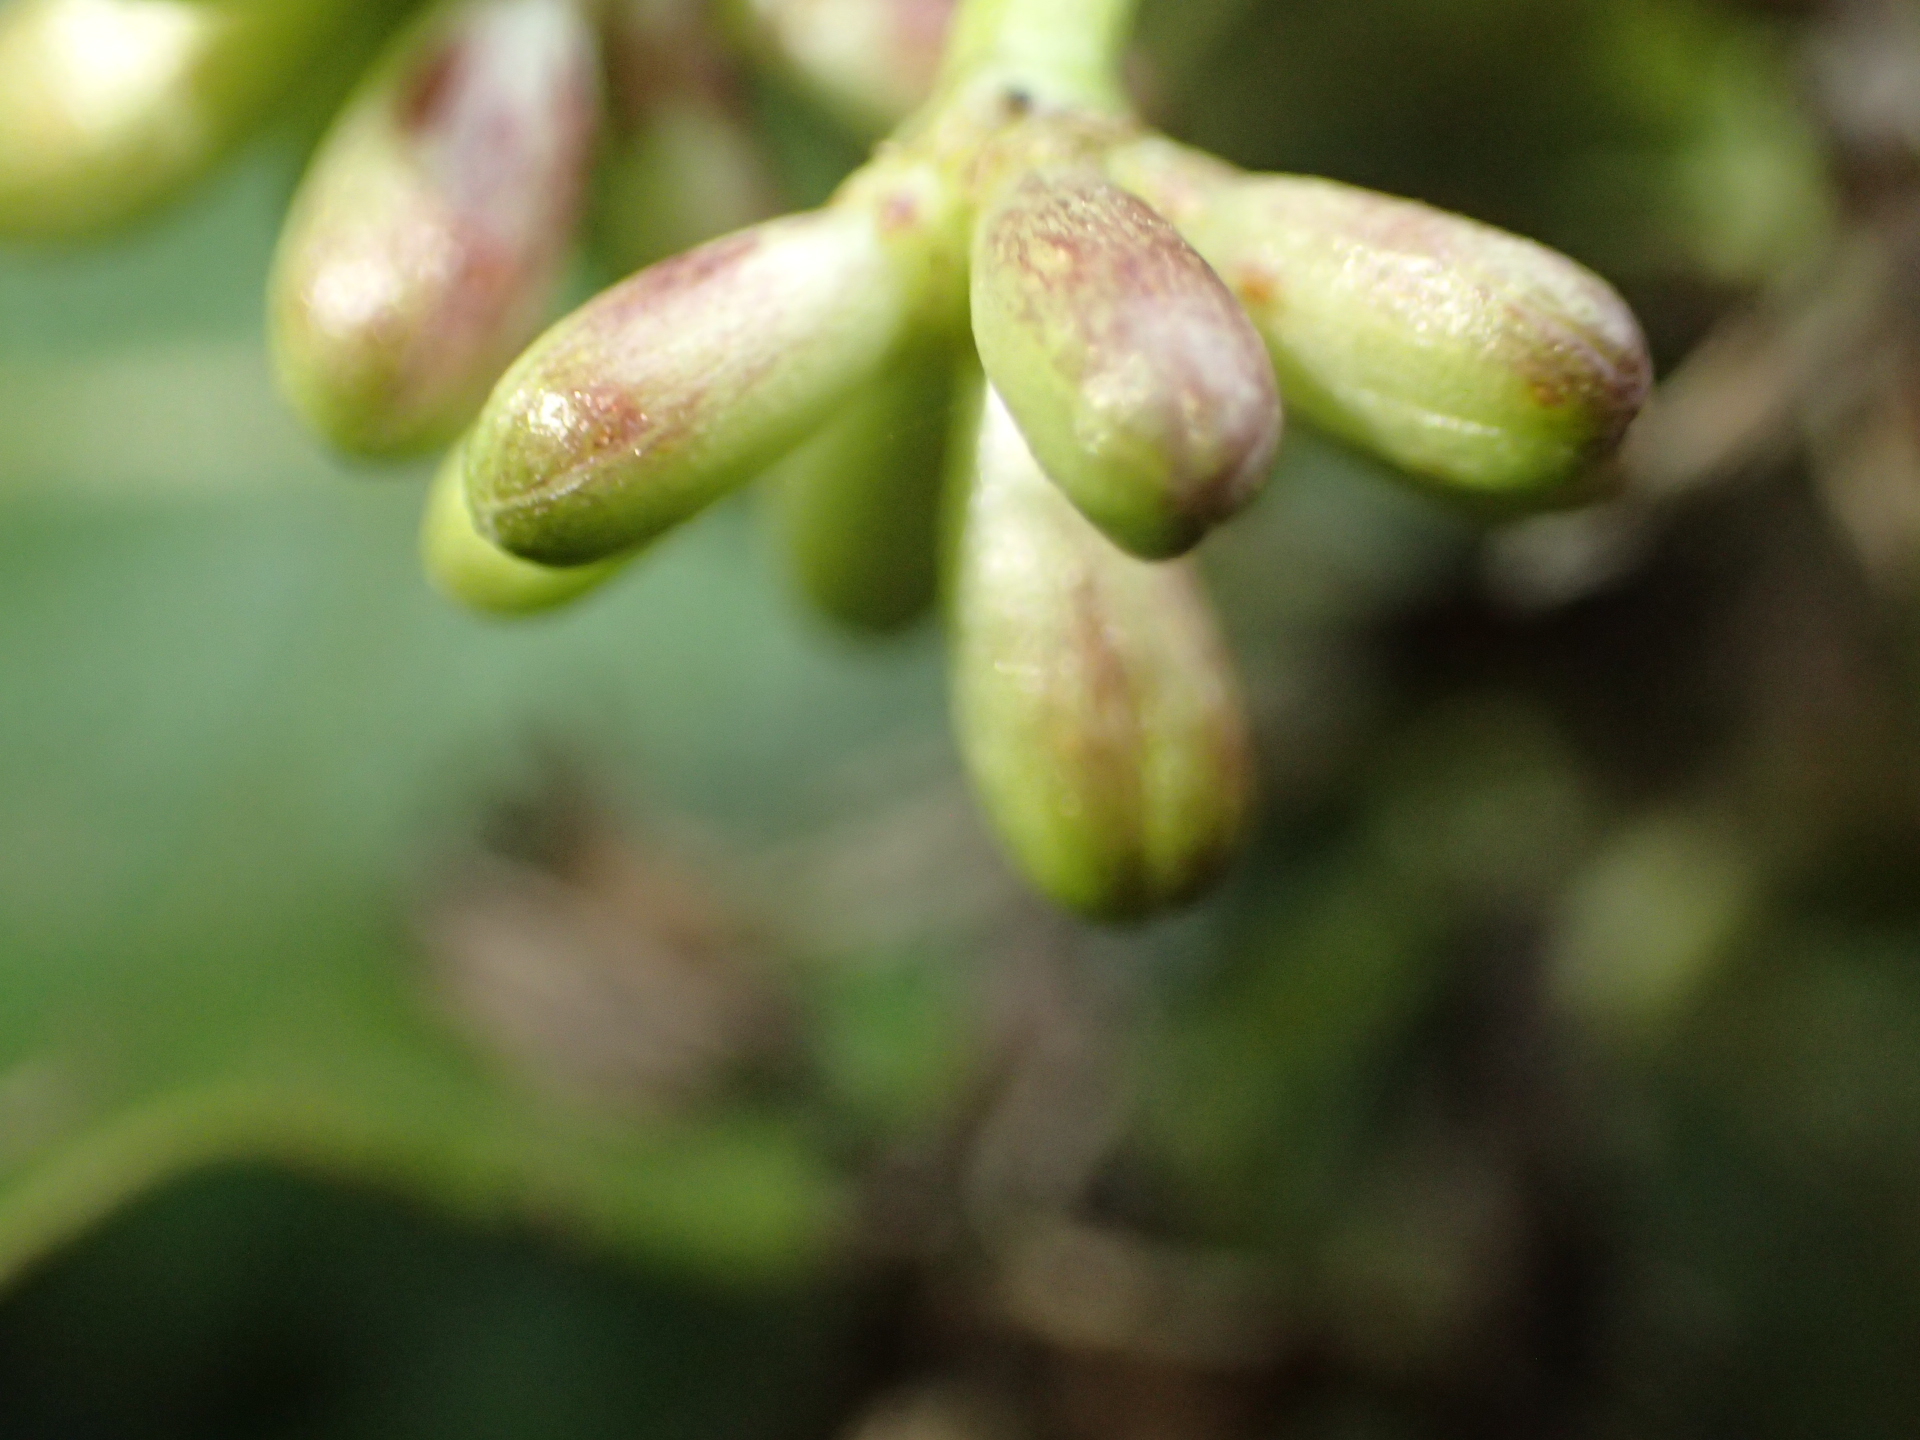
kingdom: Plantae
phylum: Tracheophyta
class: Magnoliopsida
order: Gentianales
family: Rubiaceae
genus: Coprosma
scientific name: Coprosma autumnalis
